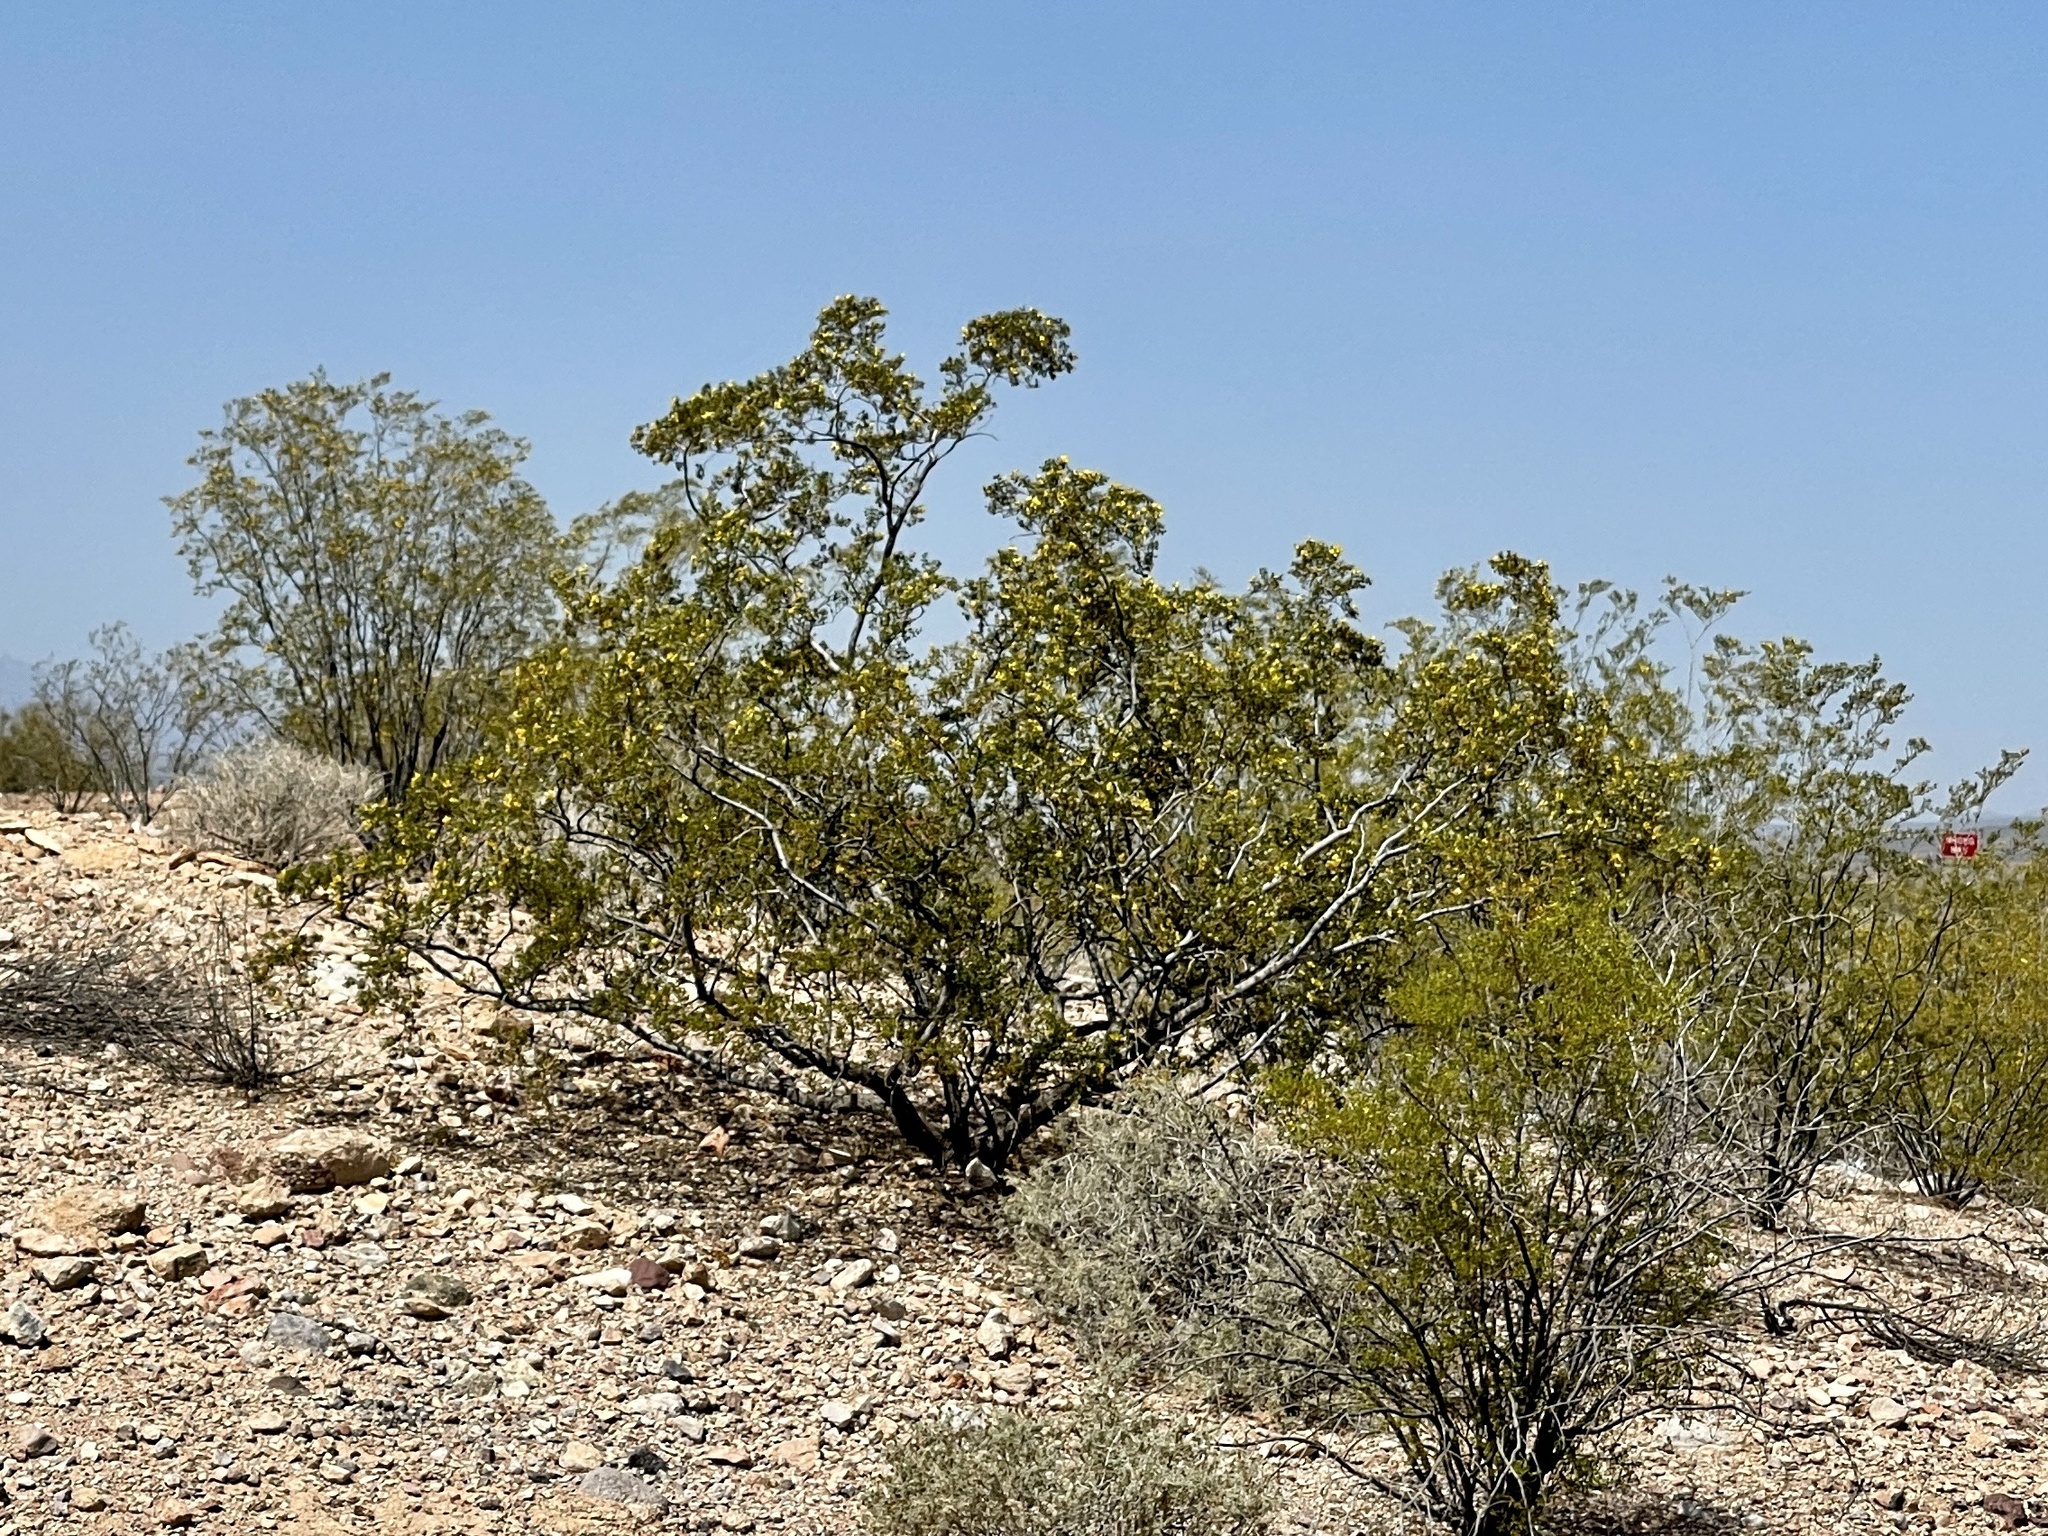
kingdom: Plantae
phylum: Tracheophyta
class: Magnoliopsida
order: Zygophyllales
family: Zygophyllaceae
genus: Larrea
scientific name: Larrea tridentata
